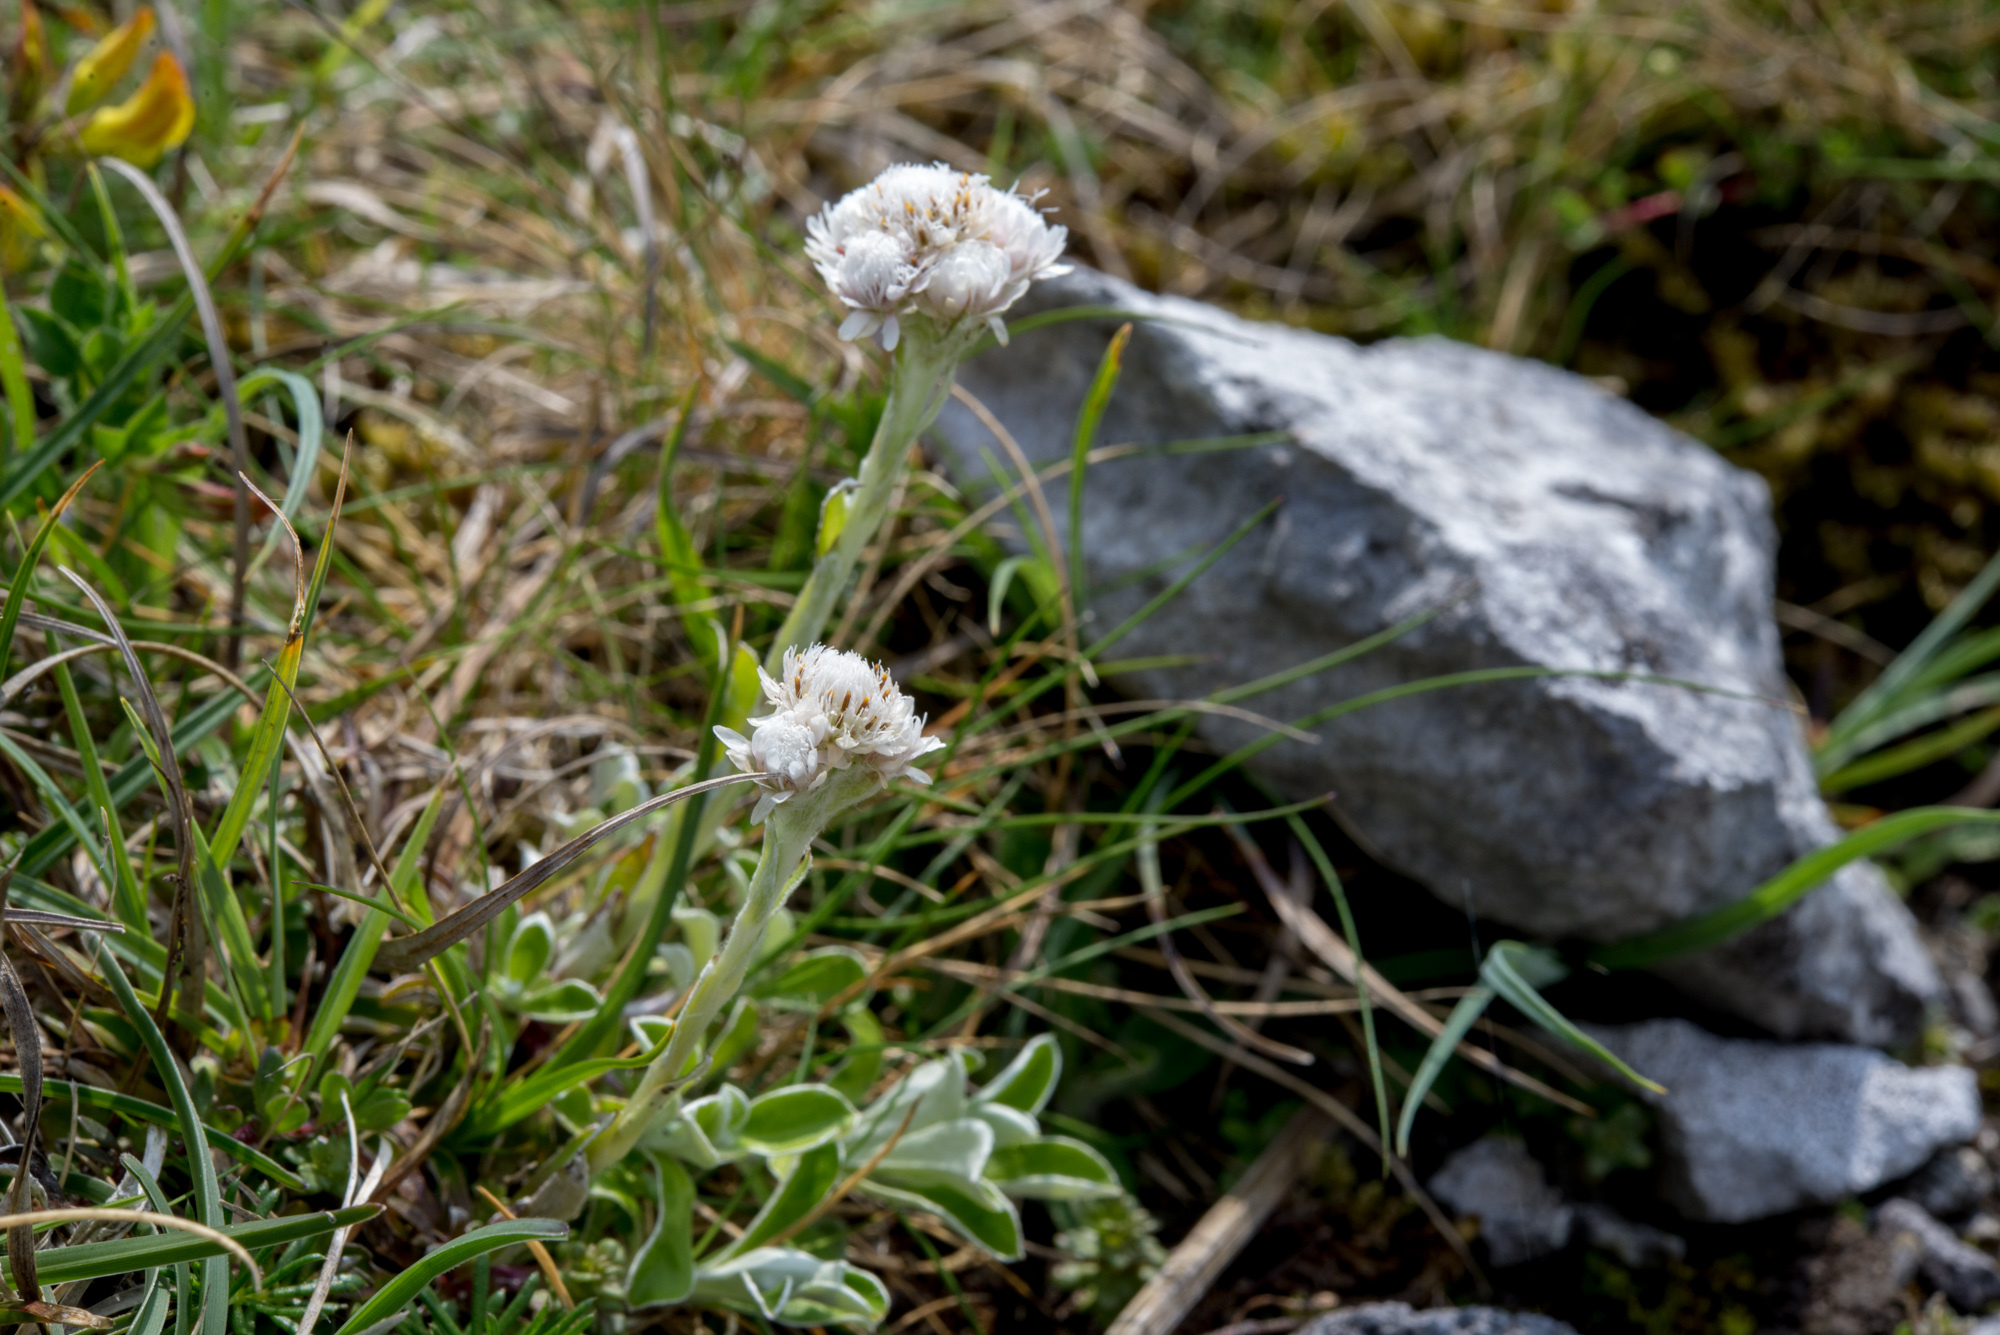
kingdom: Plantae
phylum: Tracheophyta
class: Magnoliopsida
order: Asterales
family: Asteraceae
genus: Antennaria
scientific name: Antennaria dioica
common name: Mountain everlasting
